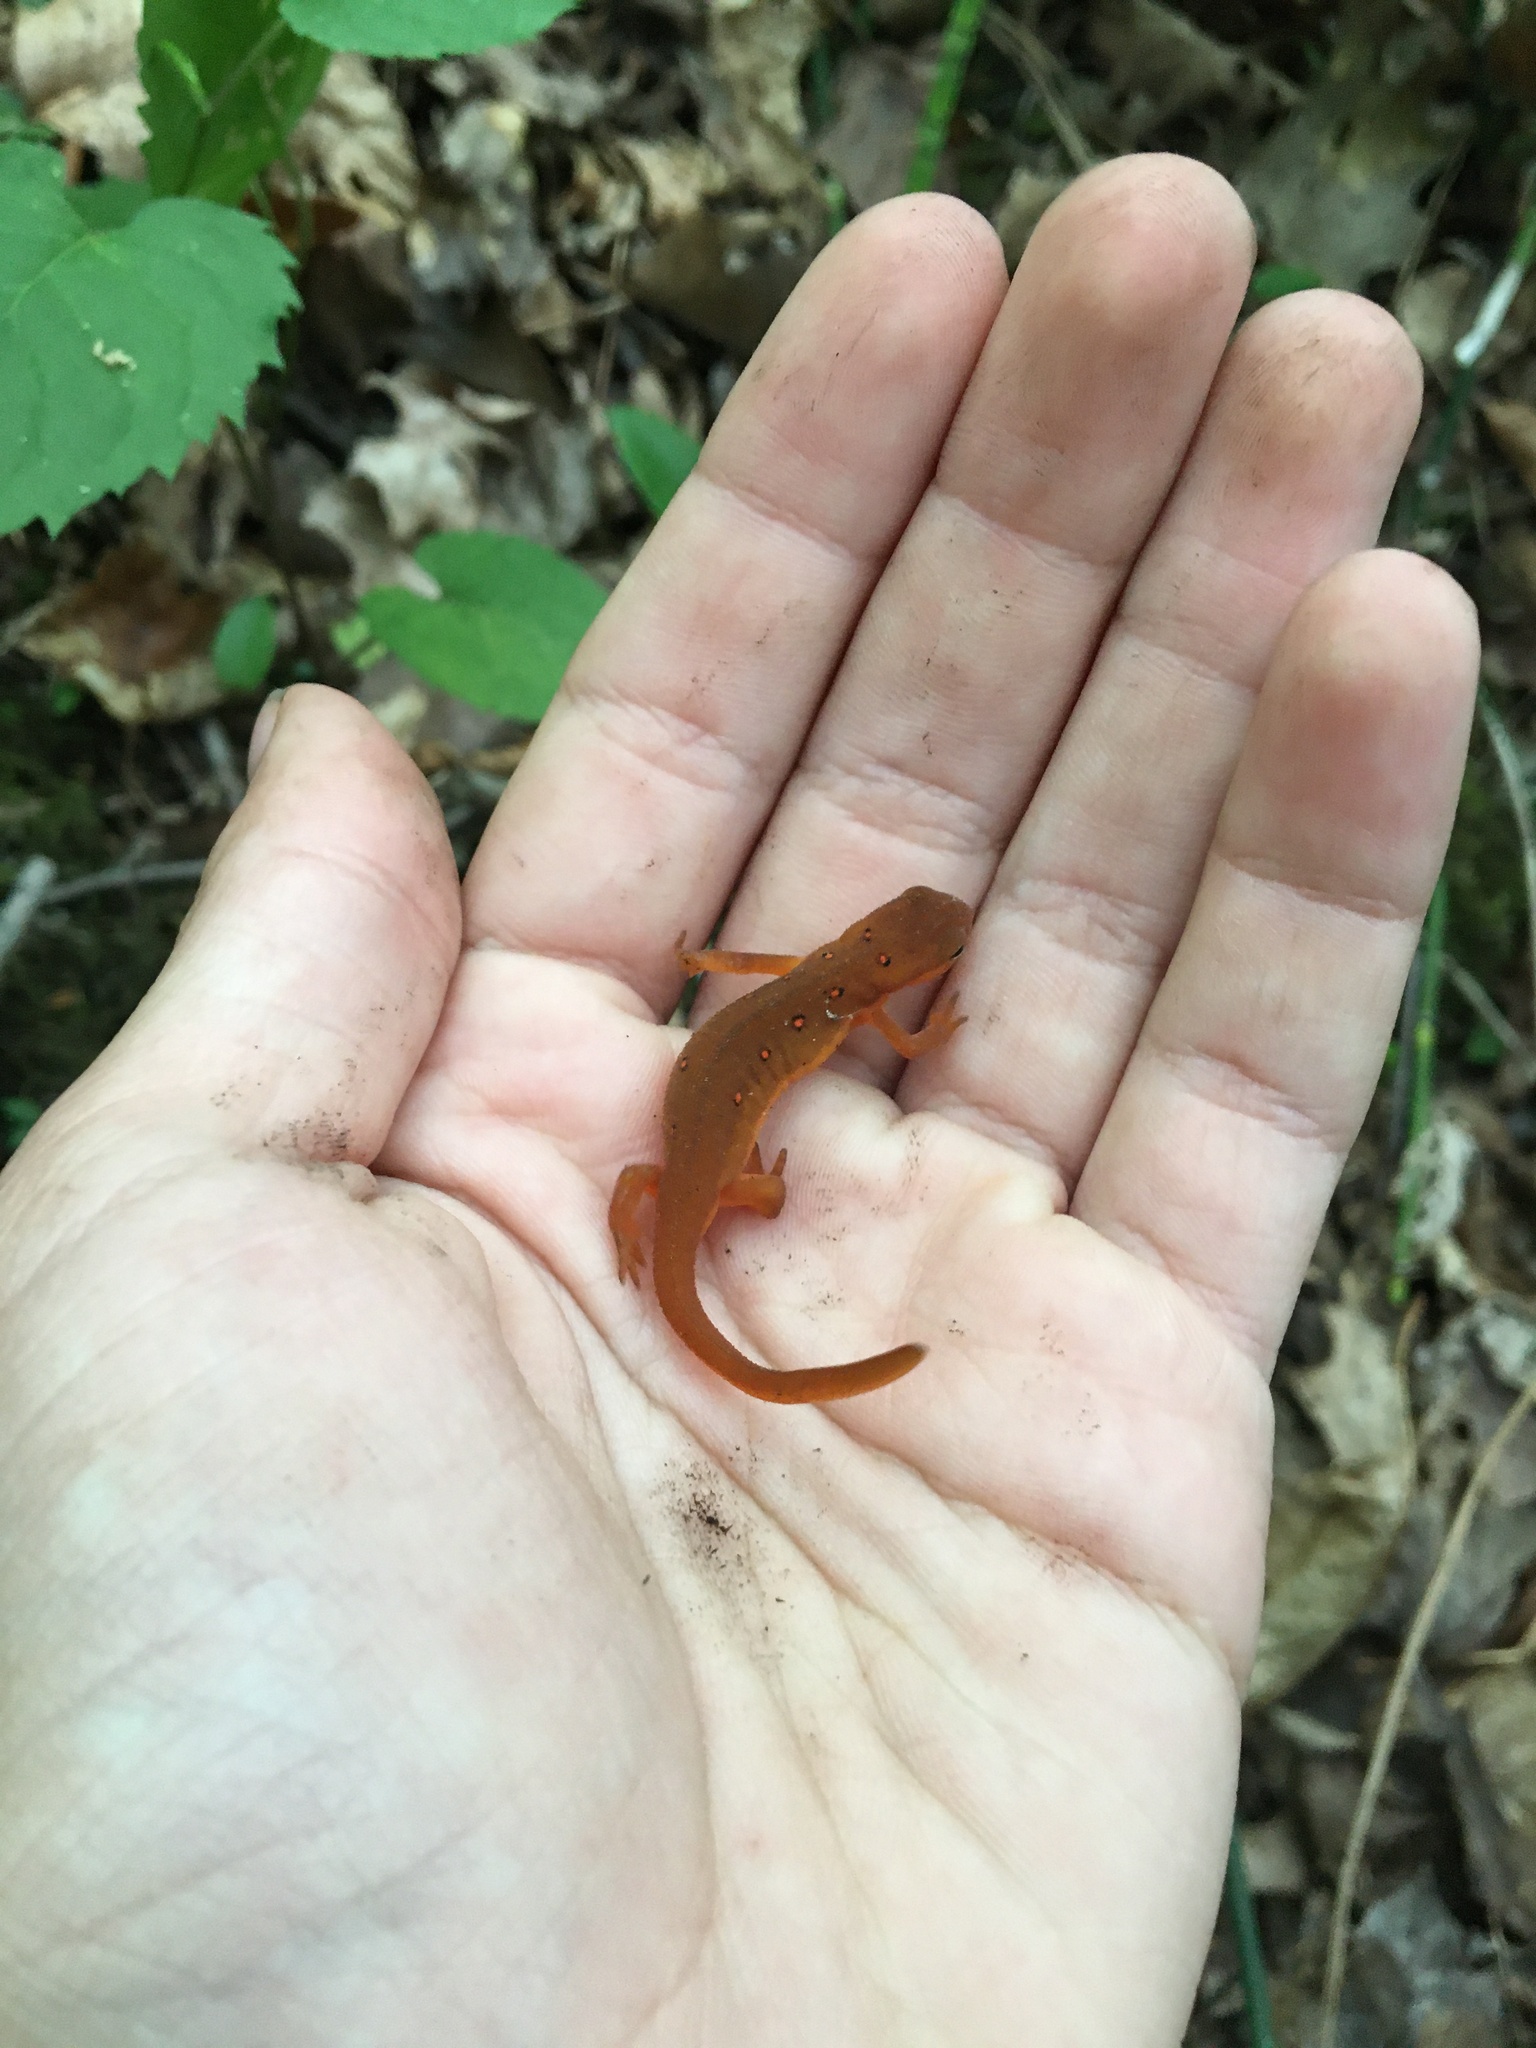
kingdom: Animalia
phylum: Chordata
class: Amphibia
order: Caudata
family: Salamandridae
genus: Notophthalmus
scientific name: Notophthalmus viridescens
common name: Eastern newt
